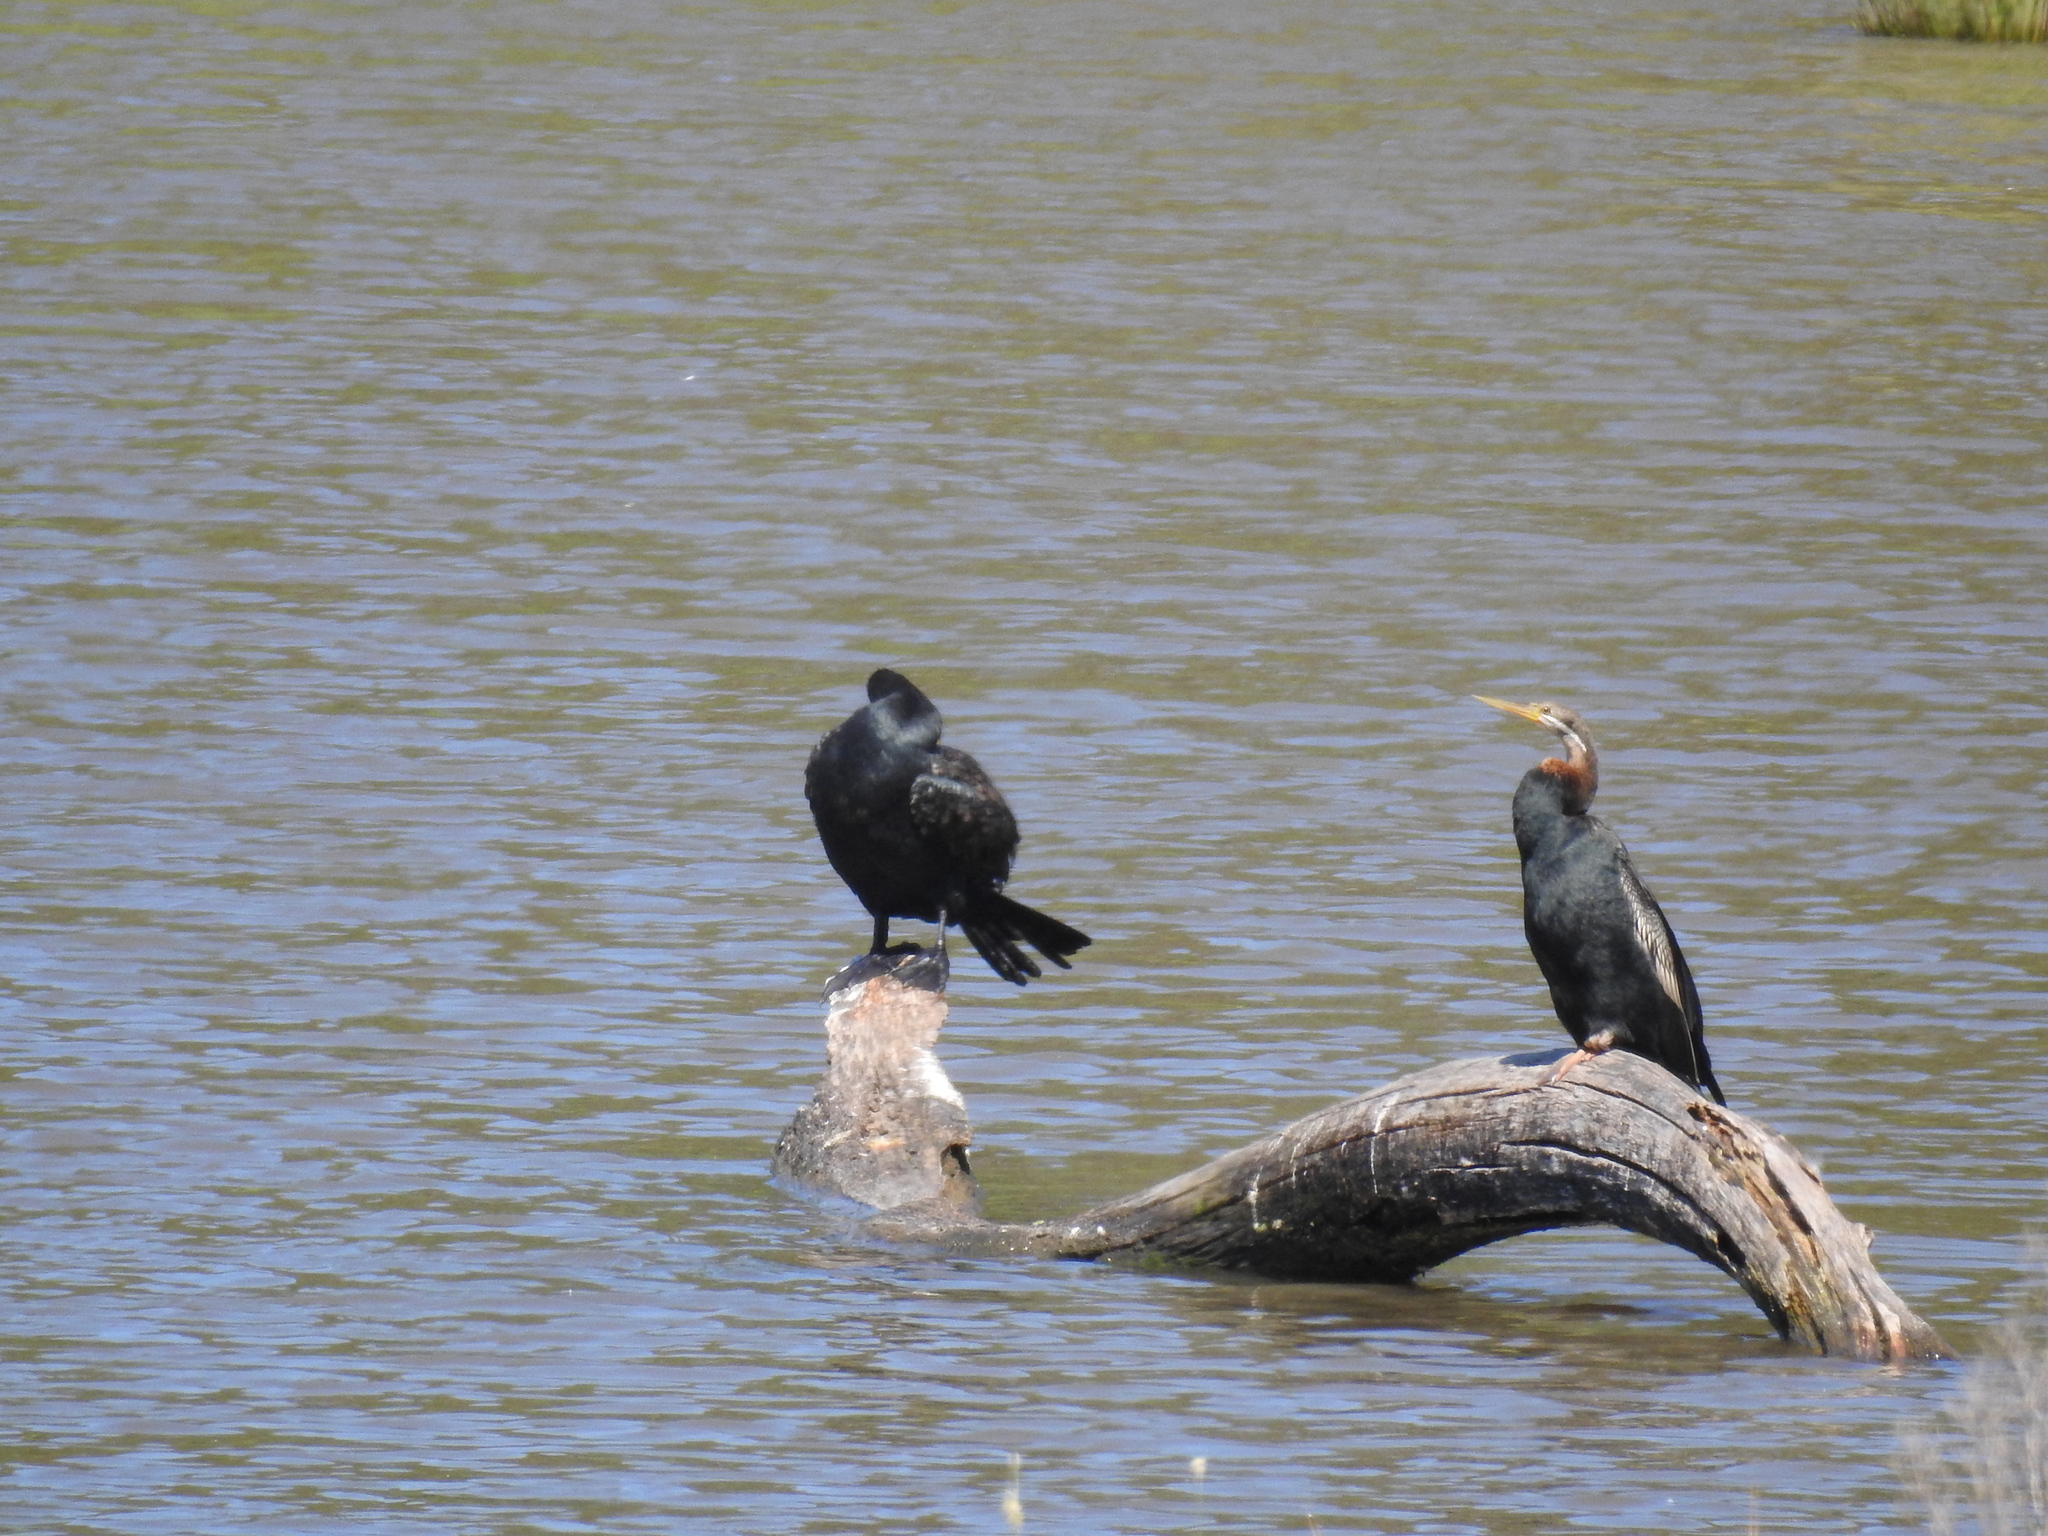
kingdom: Animalia
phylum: Chordata
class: Aves
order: Suliformes
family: Anhingidae
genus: Anhinga
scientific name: Anhinga novaehollandiae
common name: Australasian darter
